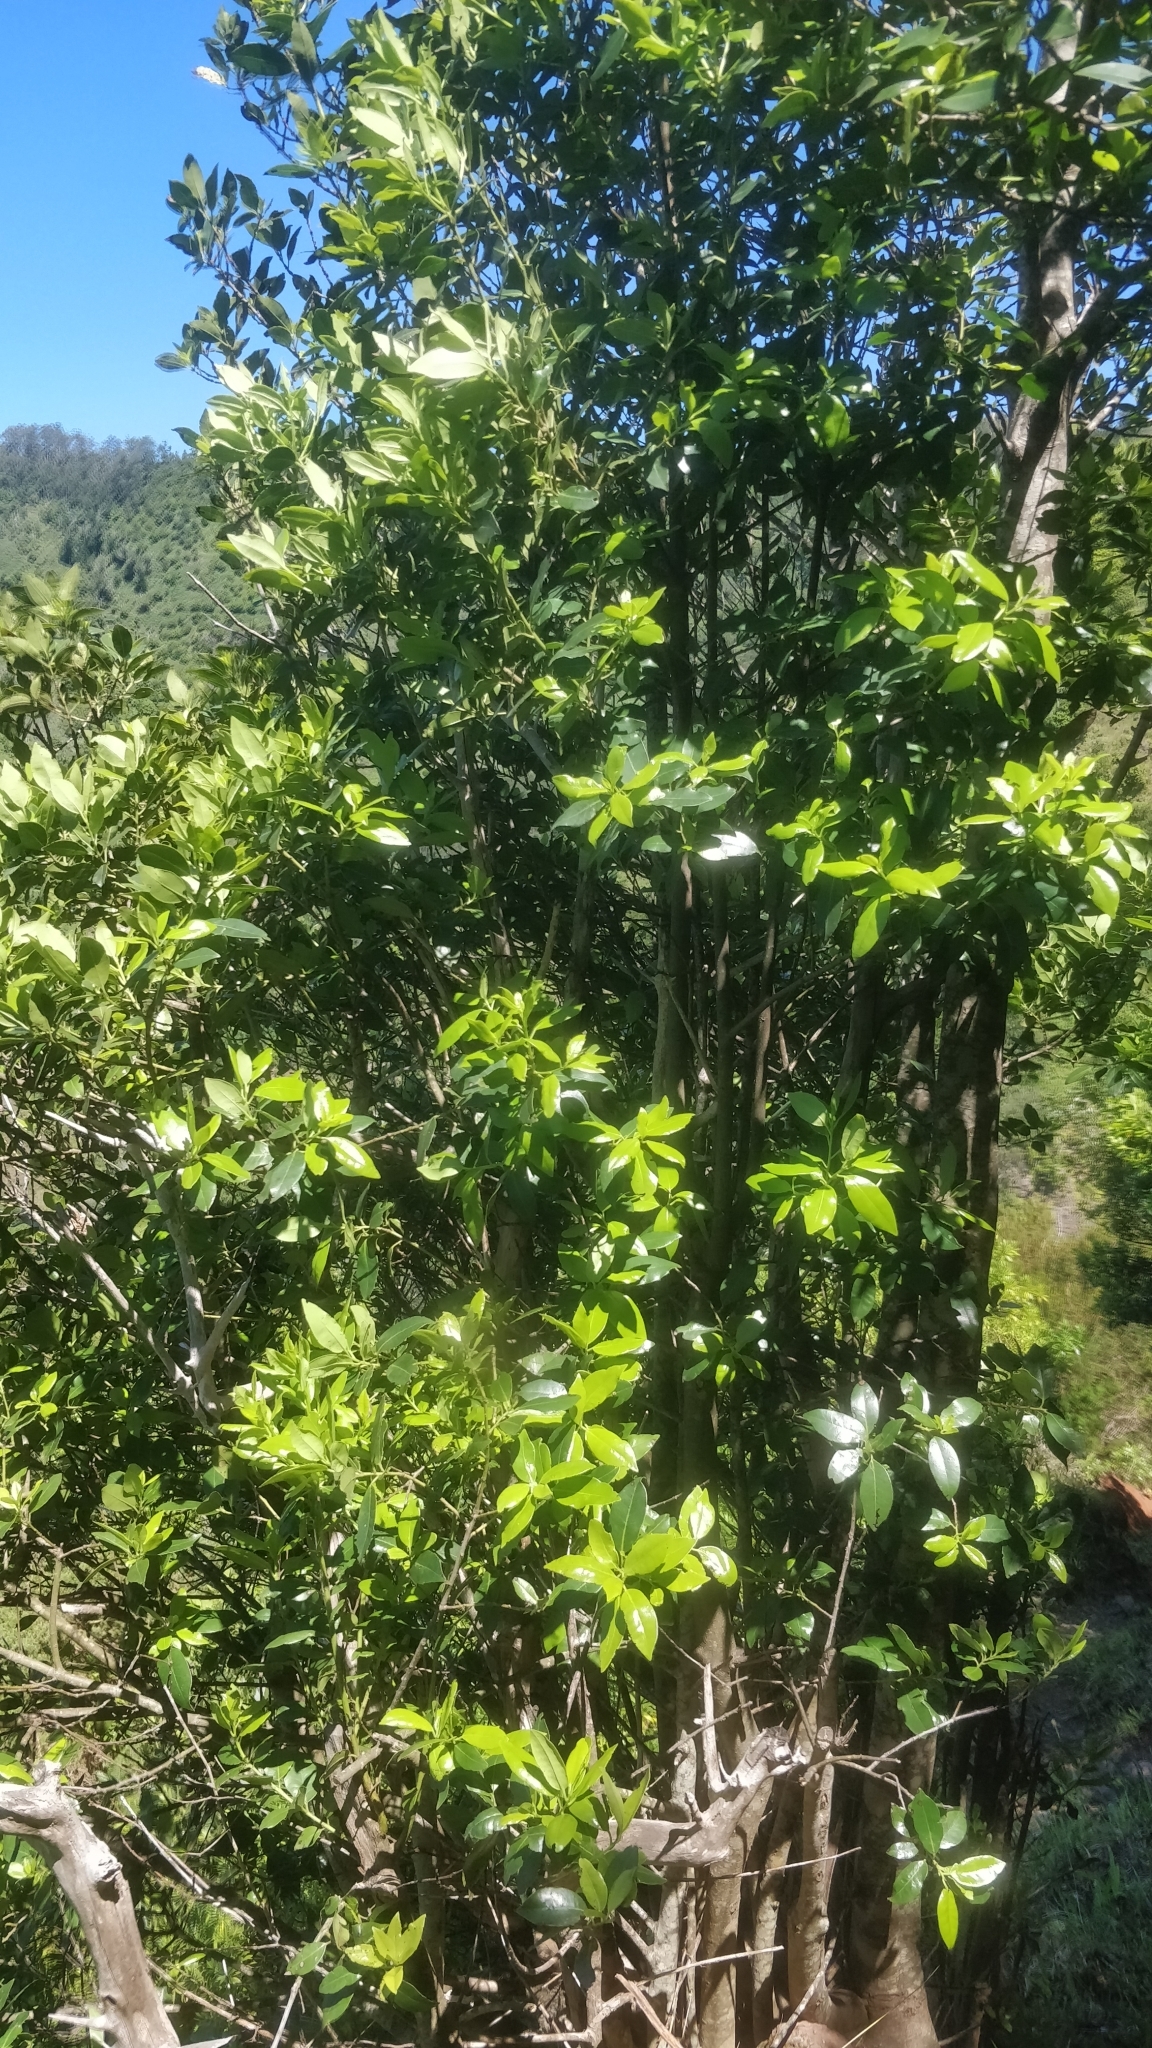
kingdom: Plantae
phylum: Tracheophyta
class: Magnoliopsida
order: Aquifoliales
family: Aquifoliaceae
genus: Ilex
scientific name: Ilex canariensis
